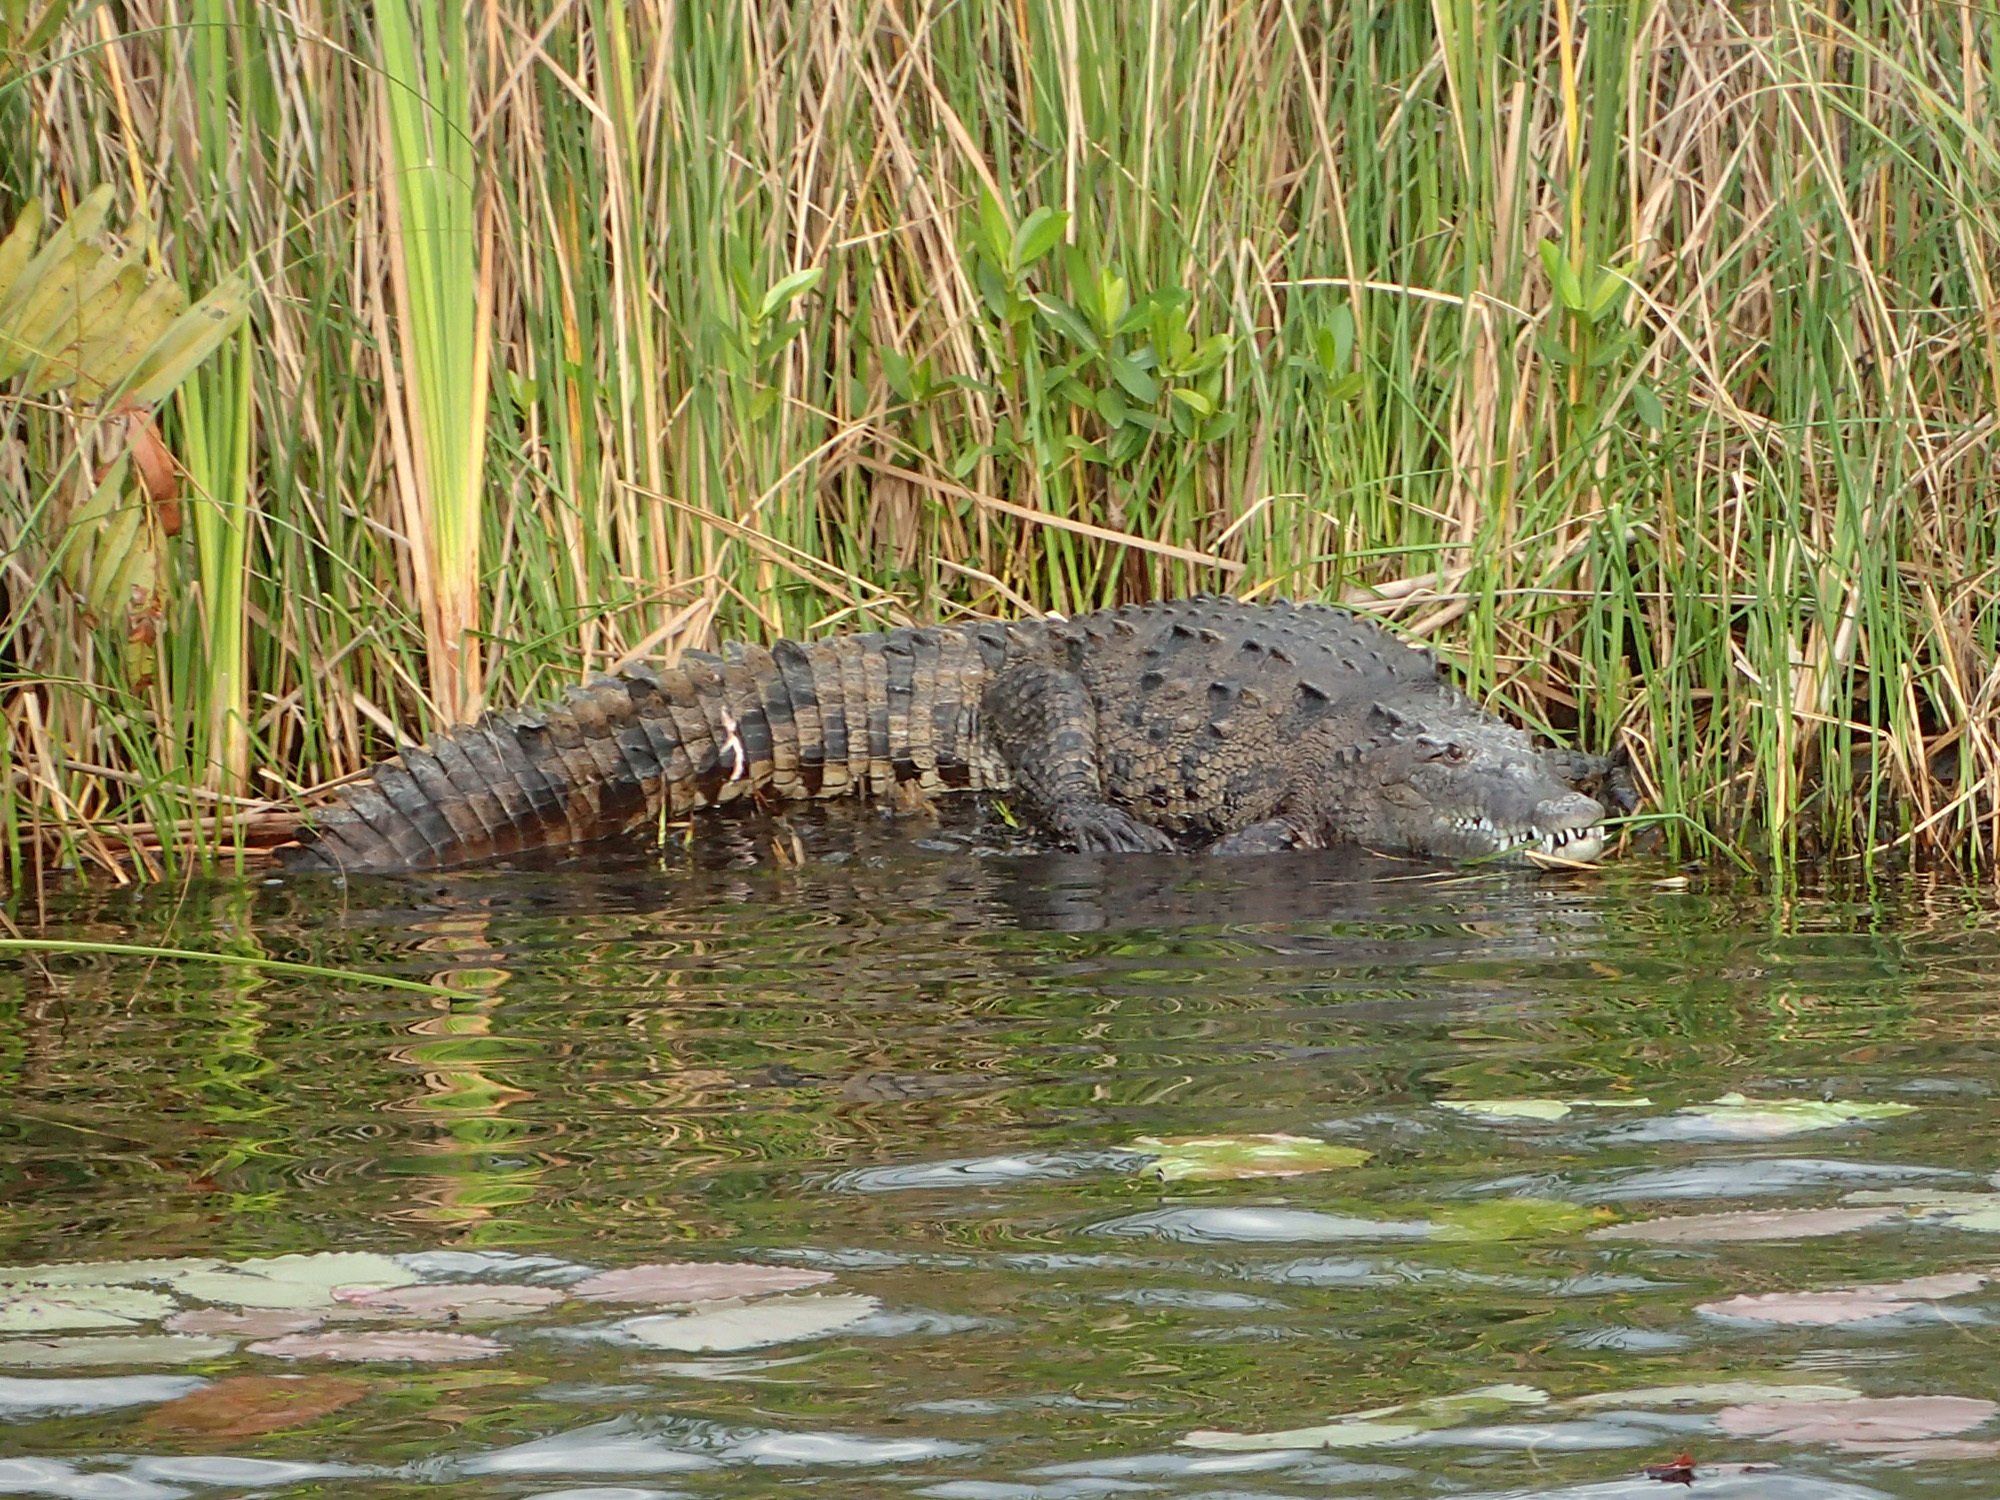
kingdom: Animalia
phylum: Chordata
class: Crocodylia
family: Crocodylidae
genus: Crocodylus
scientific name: Crocodylus acutus
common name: American crocodile
